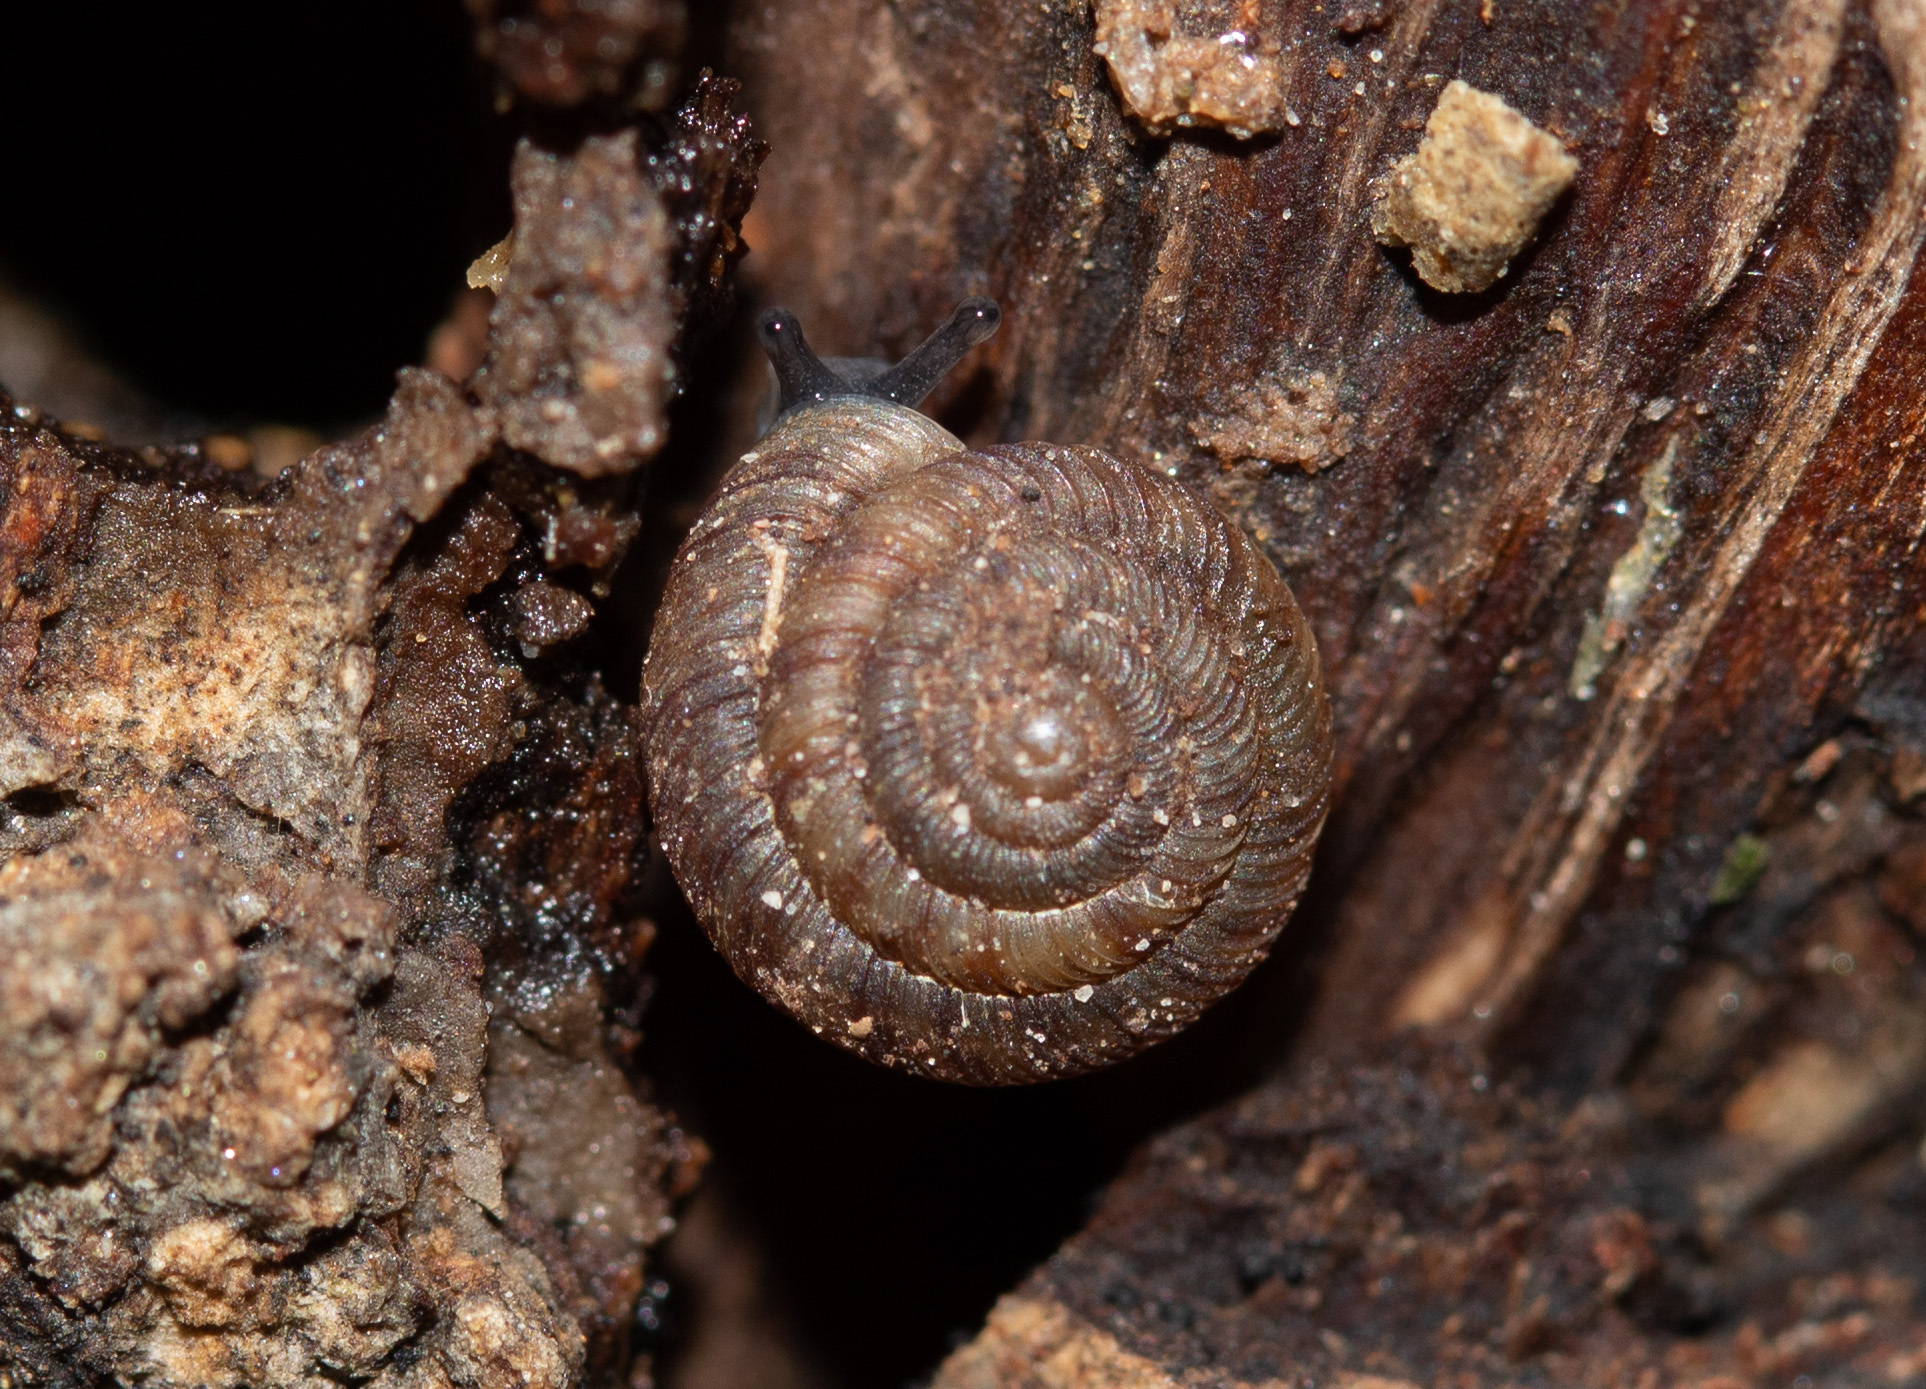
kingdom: Animalia
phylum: Mollusca
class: Gastropoda
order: Stylommatophora
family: Discidae
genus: Discus
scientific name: Discus rotundatus
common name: Rounded snail
